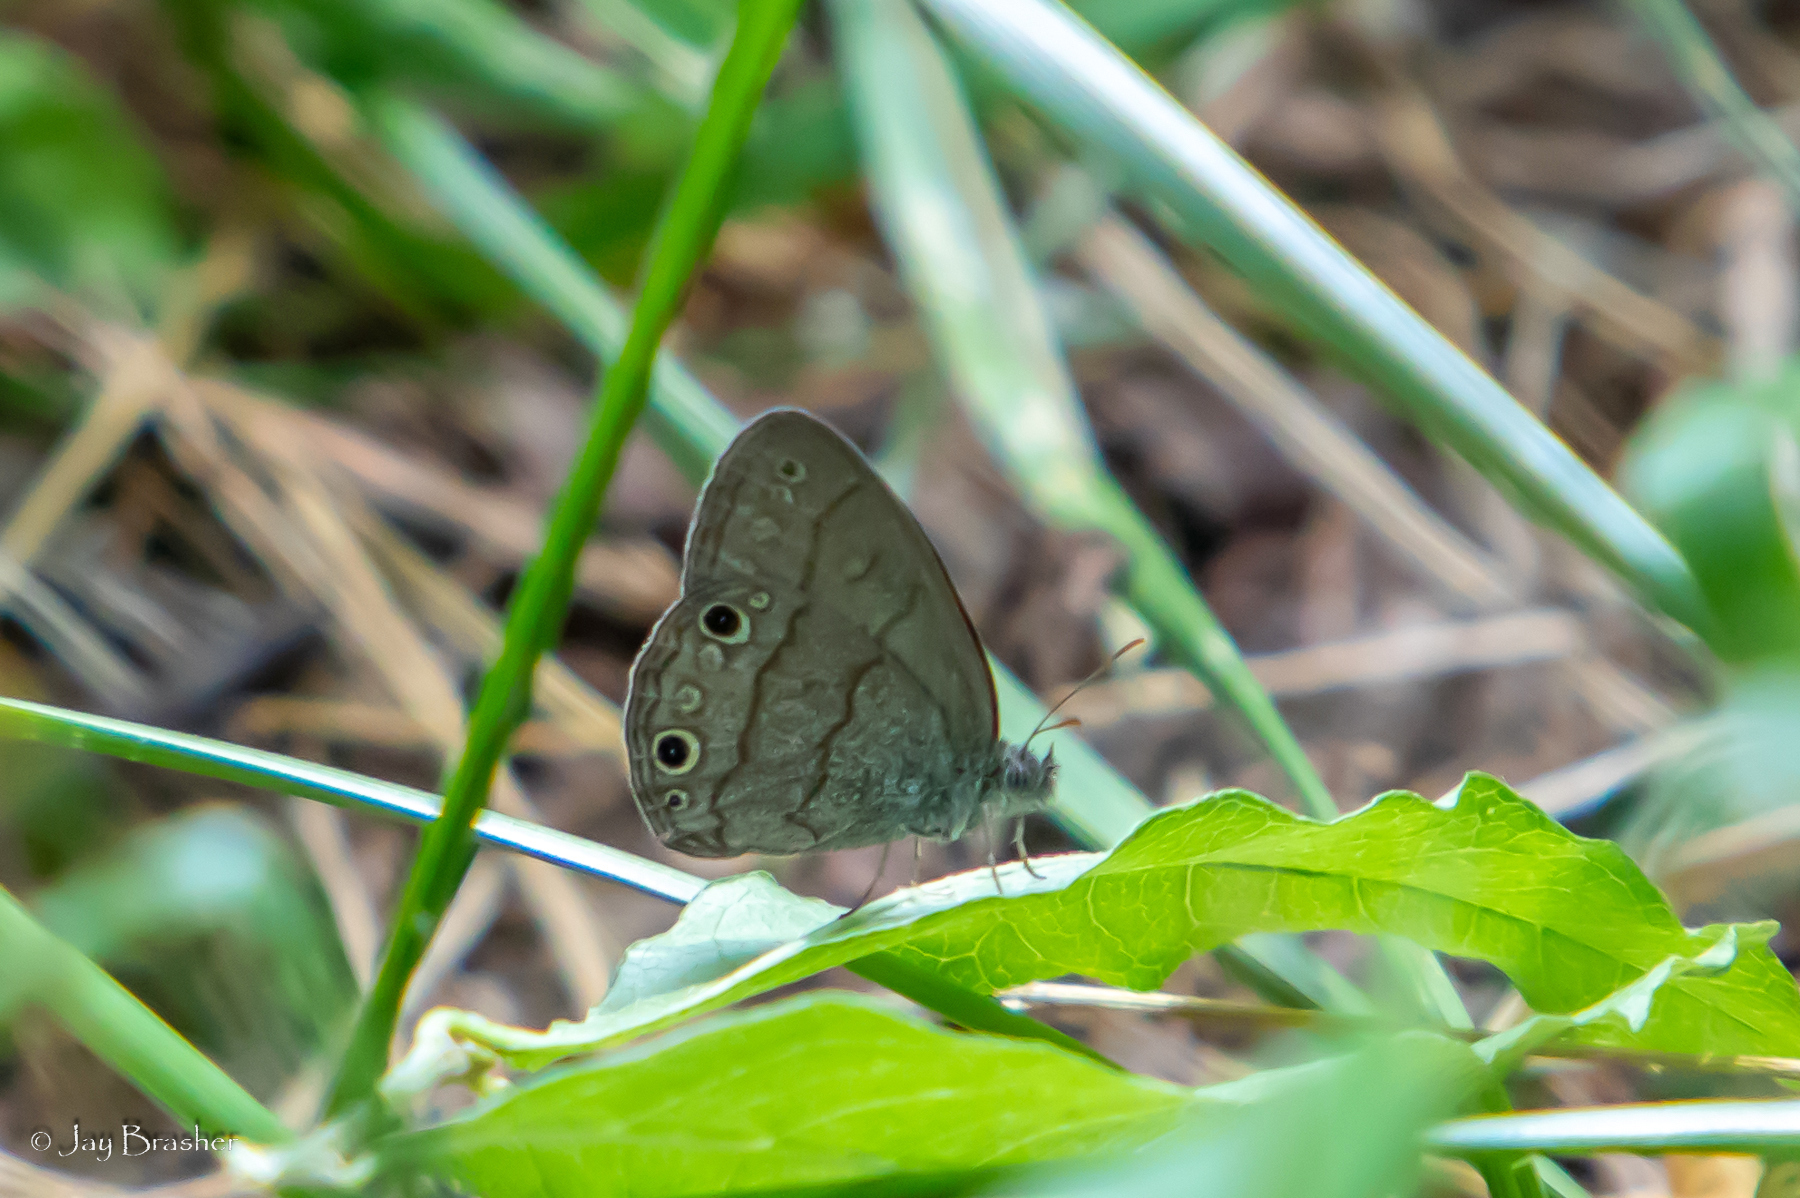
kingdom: Animalia
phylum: Arthropoda
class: Insecta
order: Lepidoptera
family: Nymphalidae
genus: Hermeuptychia
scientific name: Hermeuptychia hermes
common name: Hermes satyr
